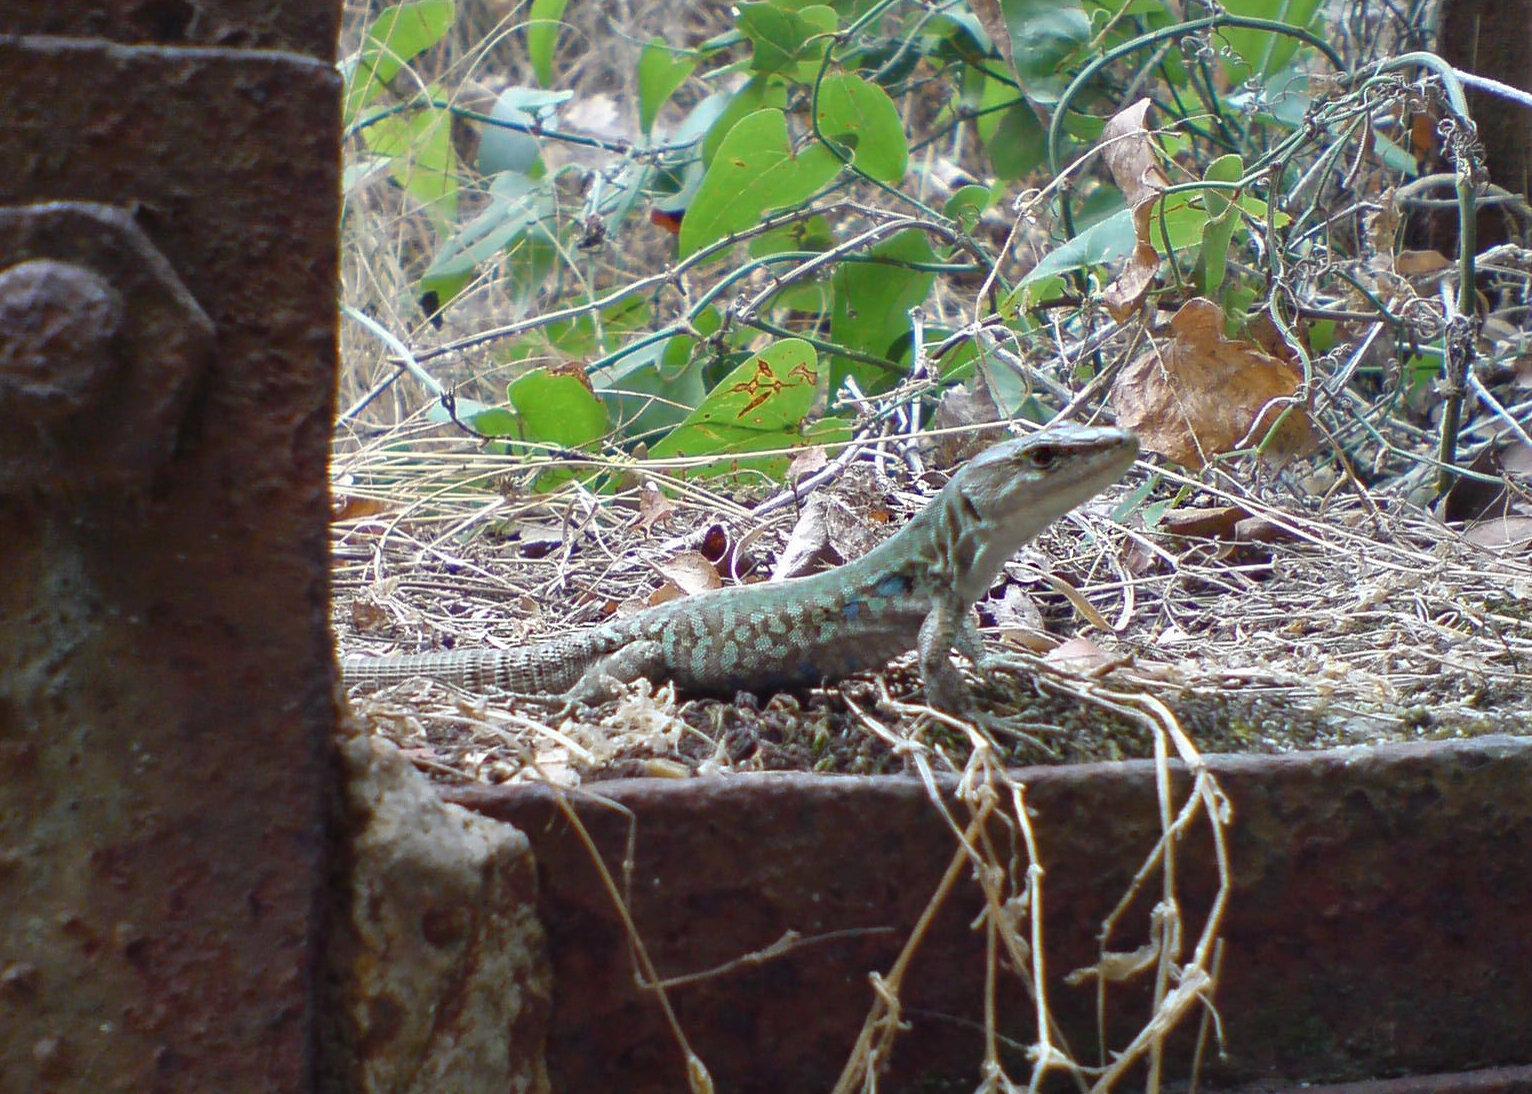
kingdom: Animalia
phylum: Chordata
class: Squamata
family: Lacertidae
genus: Podarcis
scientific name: Podarcis siculus
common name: Italian wall lizard
